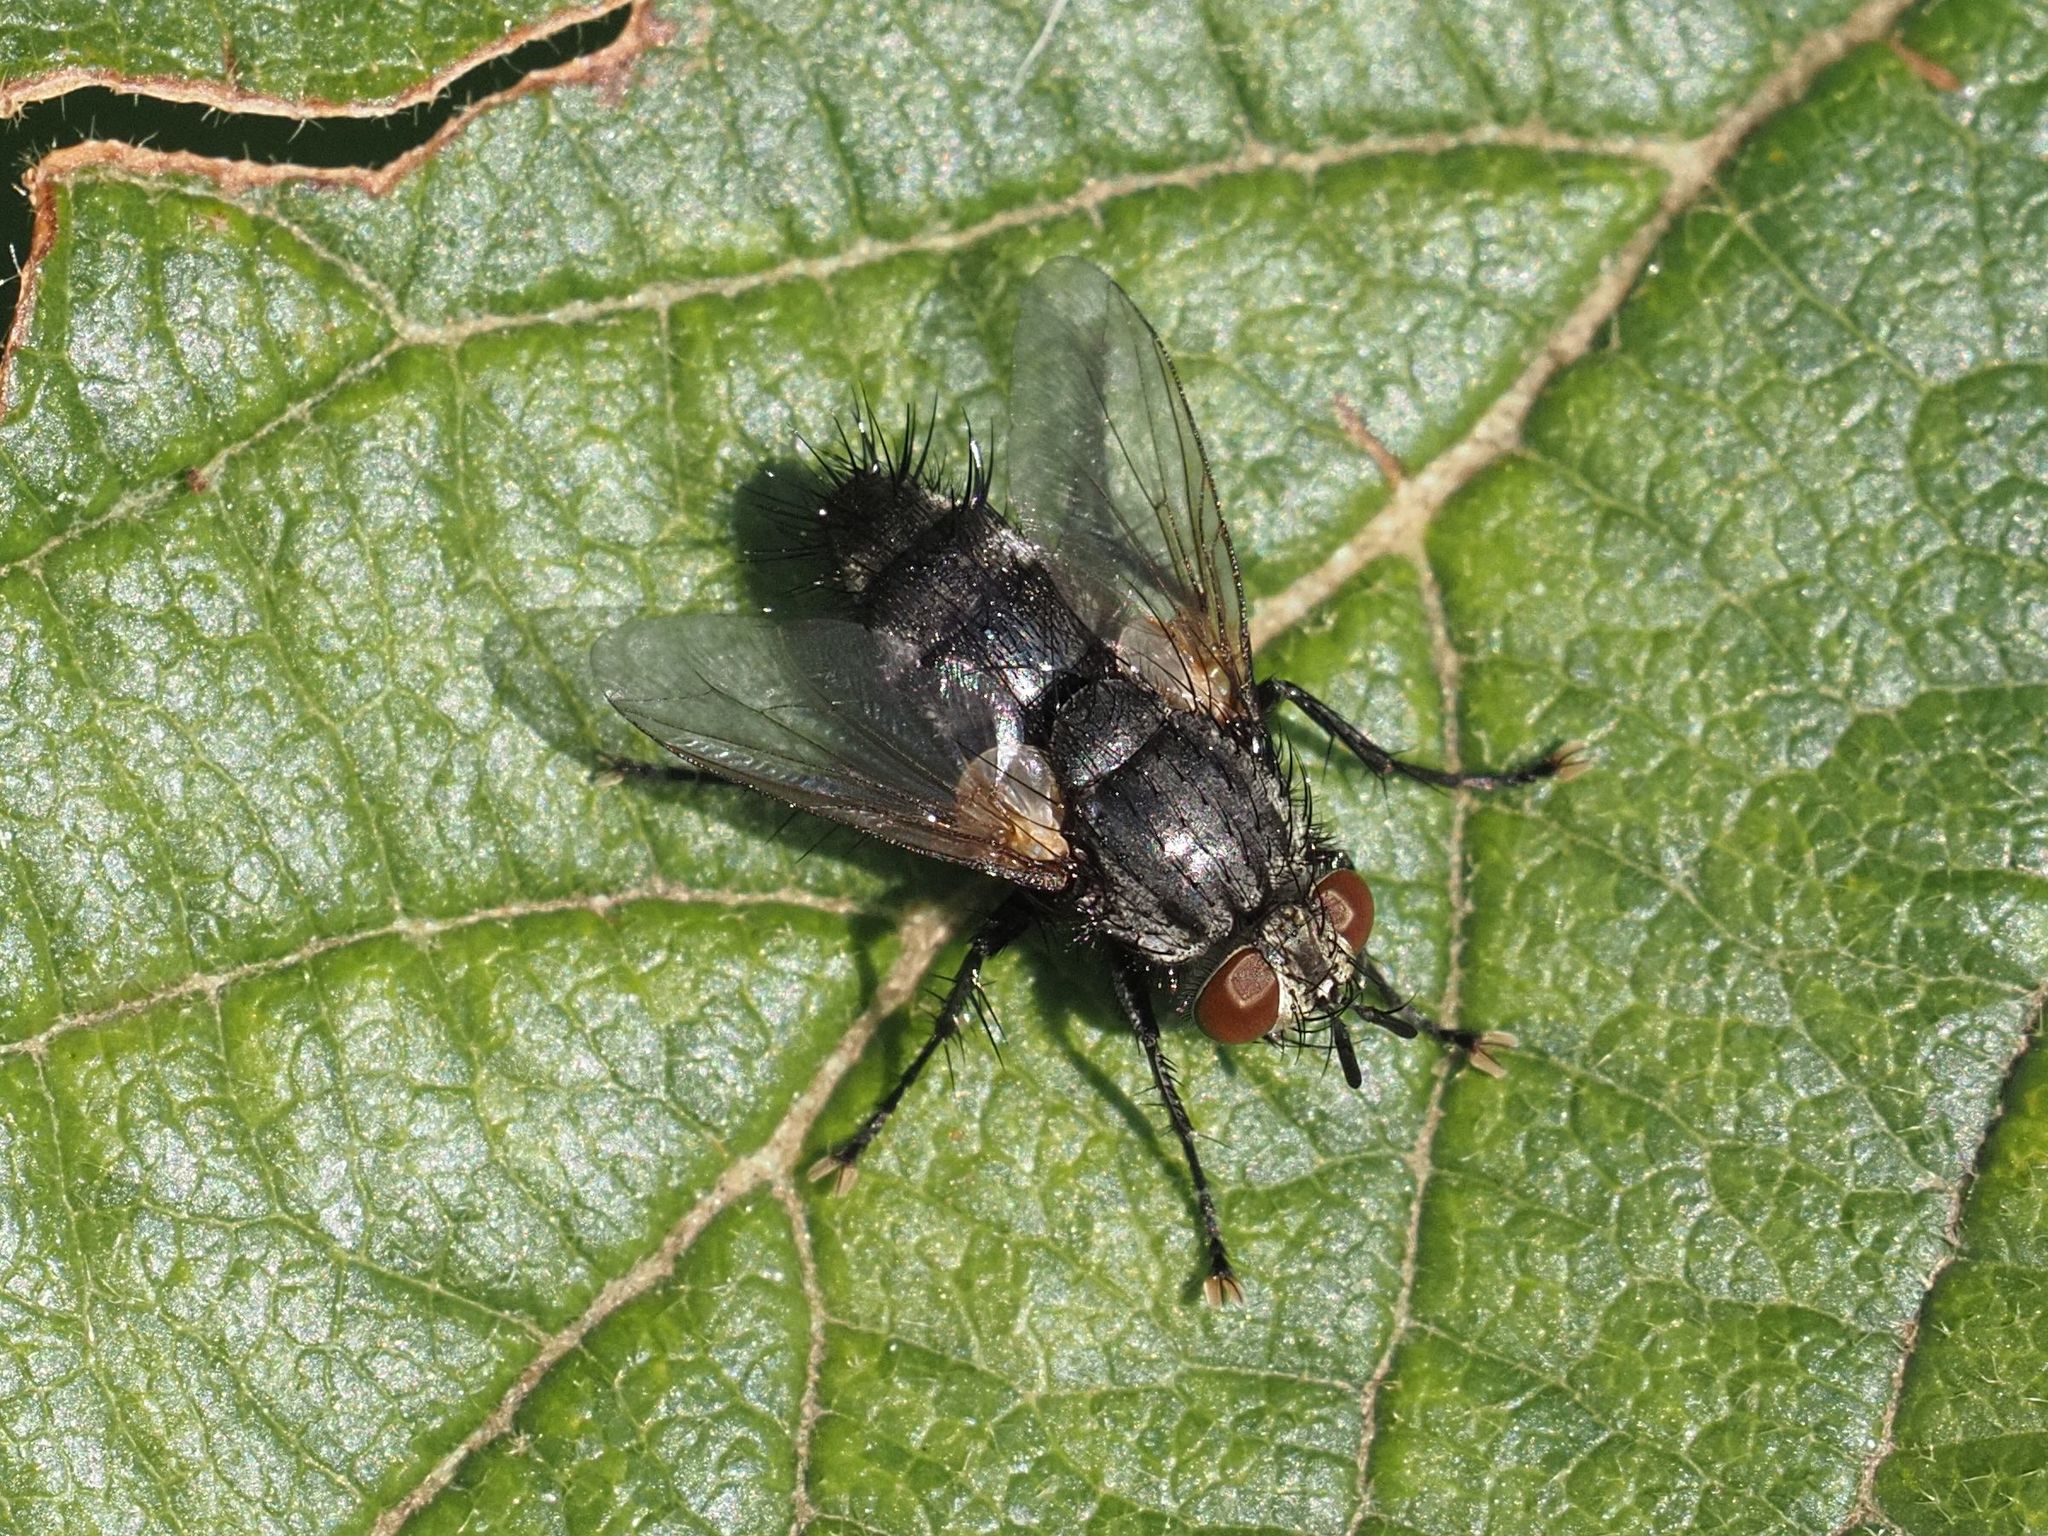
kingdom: Animalia
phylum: Arthropoda
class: Insecta
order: Diptera
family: Tachinidae
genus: Voria
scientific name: Voria ruralis
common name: Parasitic fly
